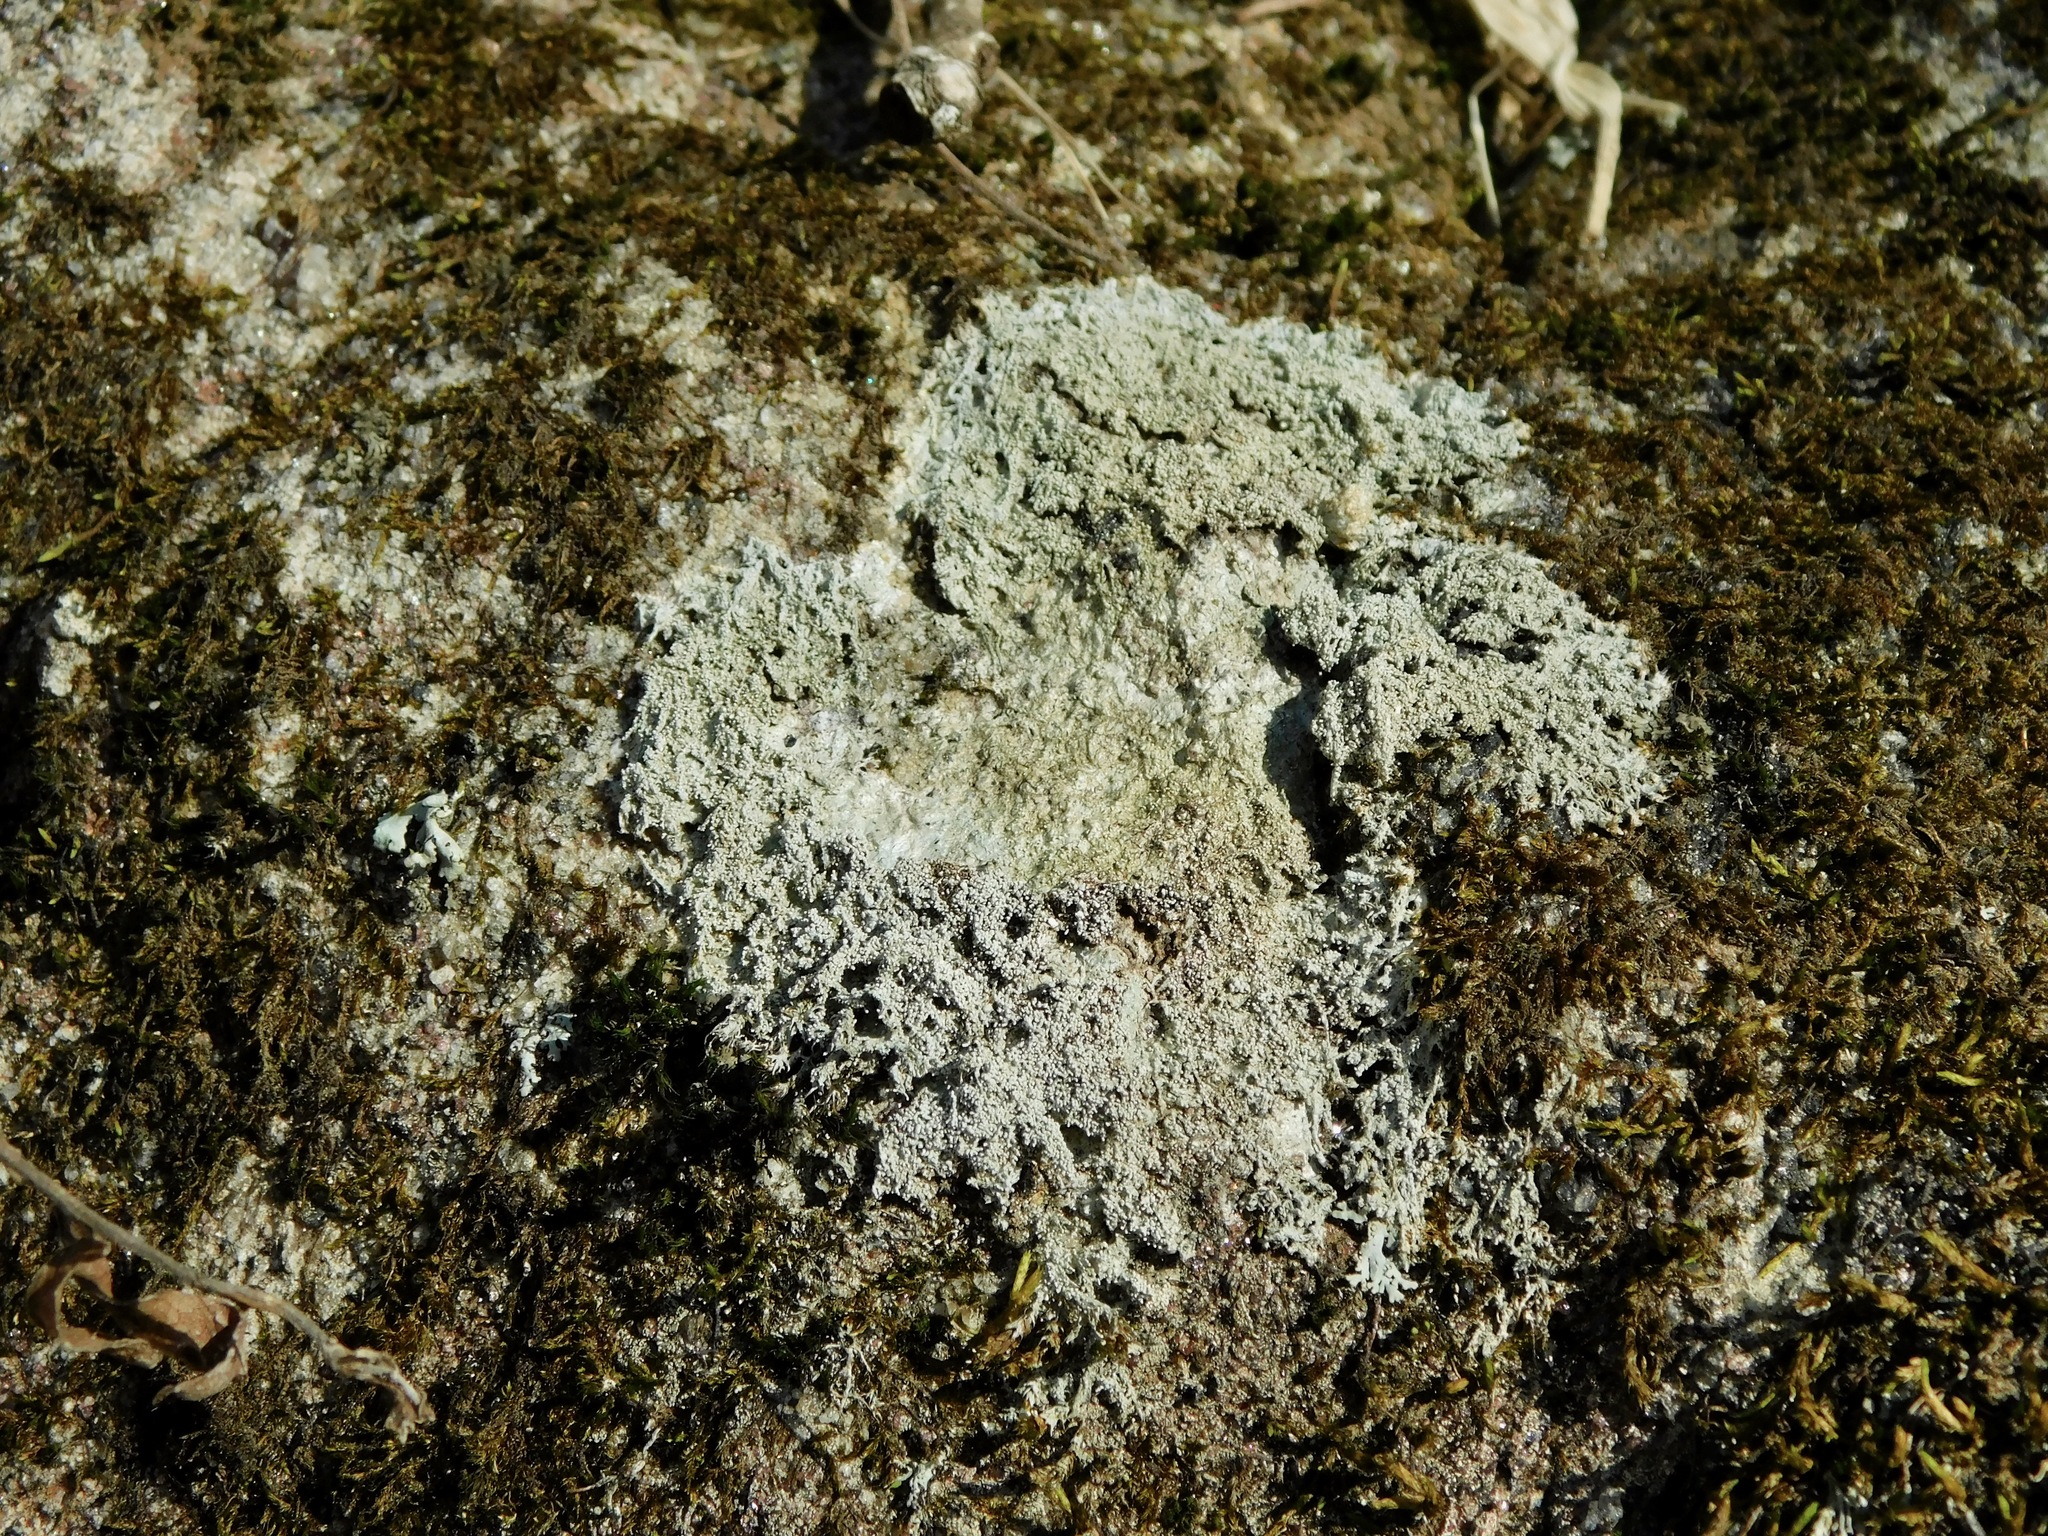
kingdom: Fungi
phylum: Ascomycota
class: Lecanoromycetes
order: Pertusariales
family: Ochrolechiaceae
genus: Ochrolechia
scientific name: Ochrolechia yasudae
